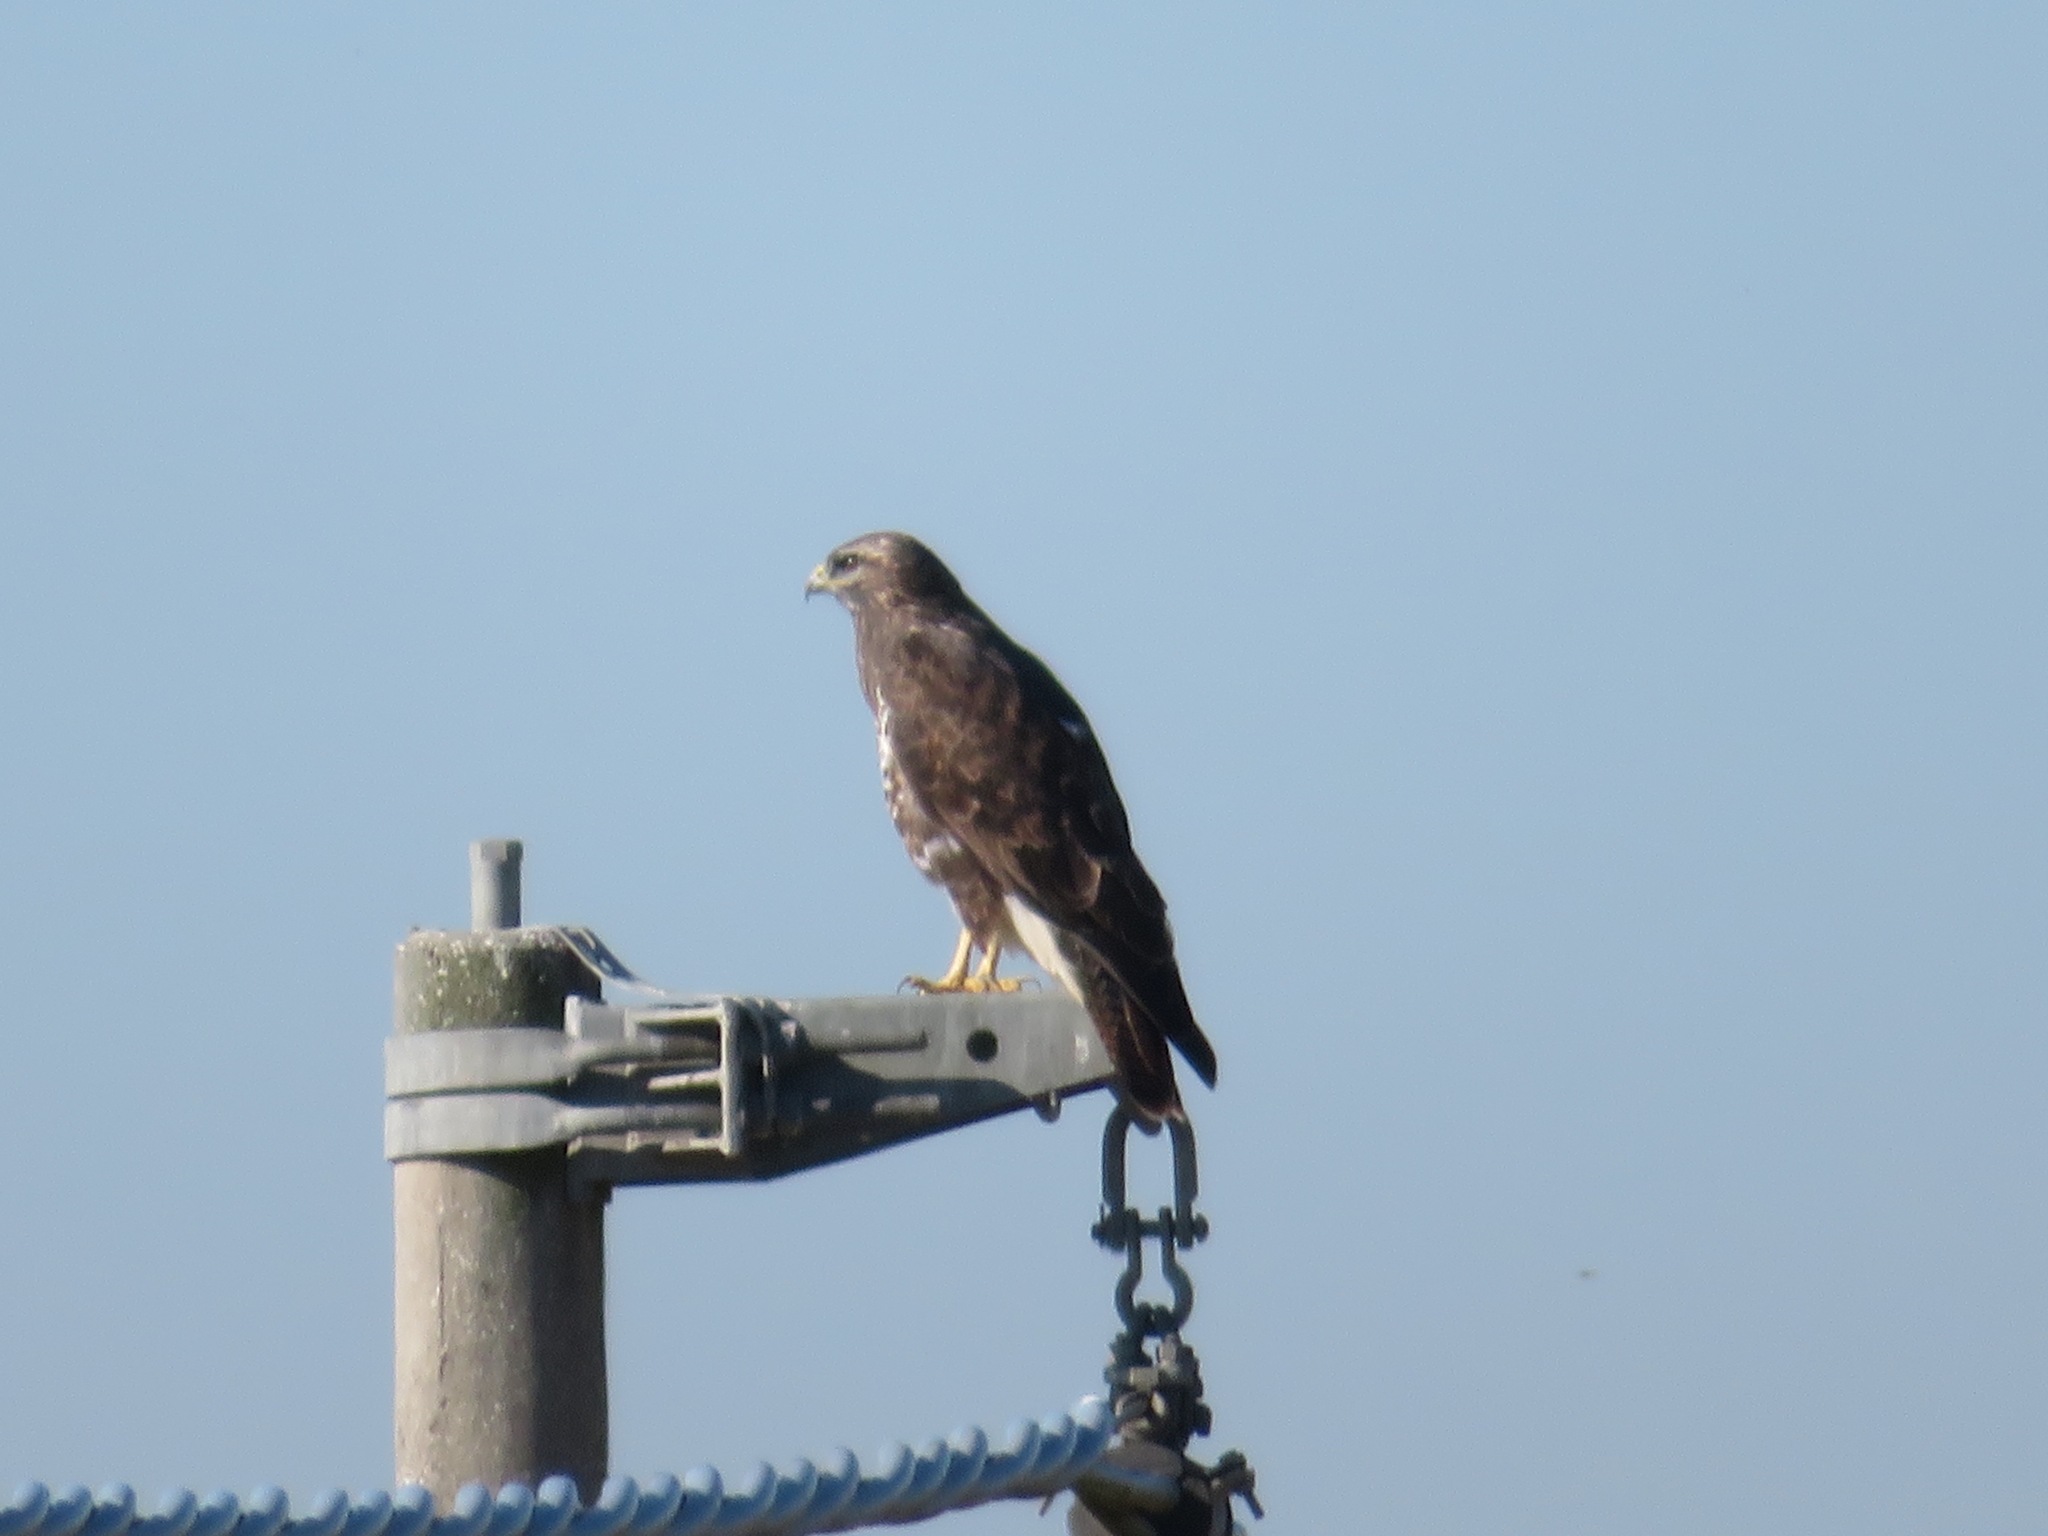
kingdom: Animalia
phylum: Chordata
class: Aves
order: Accipitriformes
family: Accipitridae
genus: Buteo
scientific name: Buteo buteo
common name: Common buzzard
